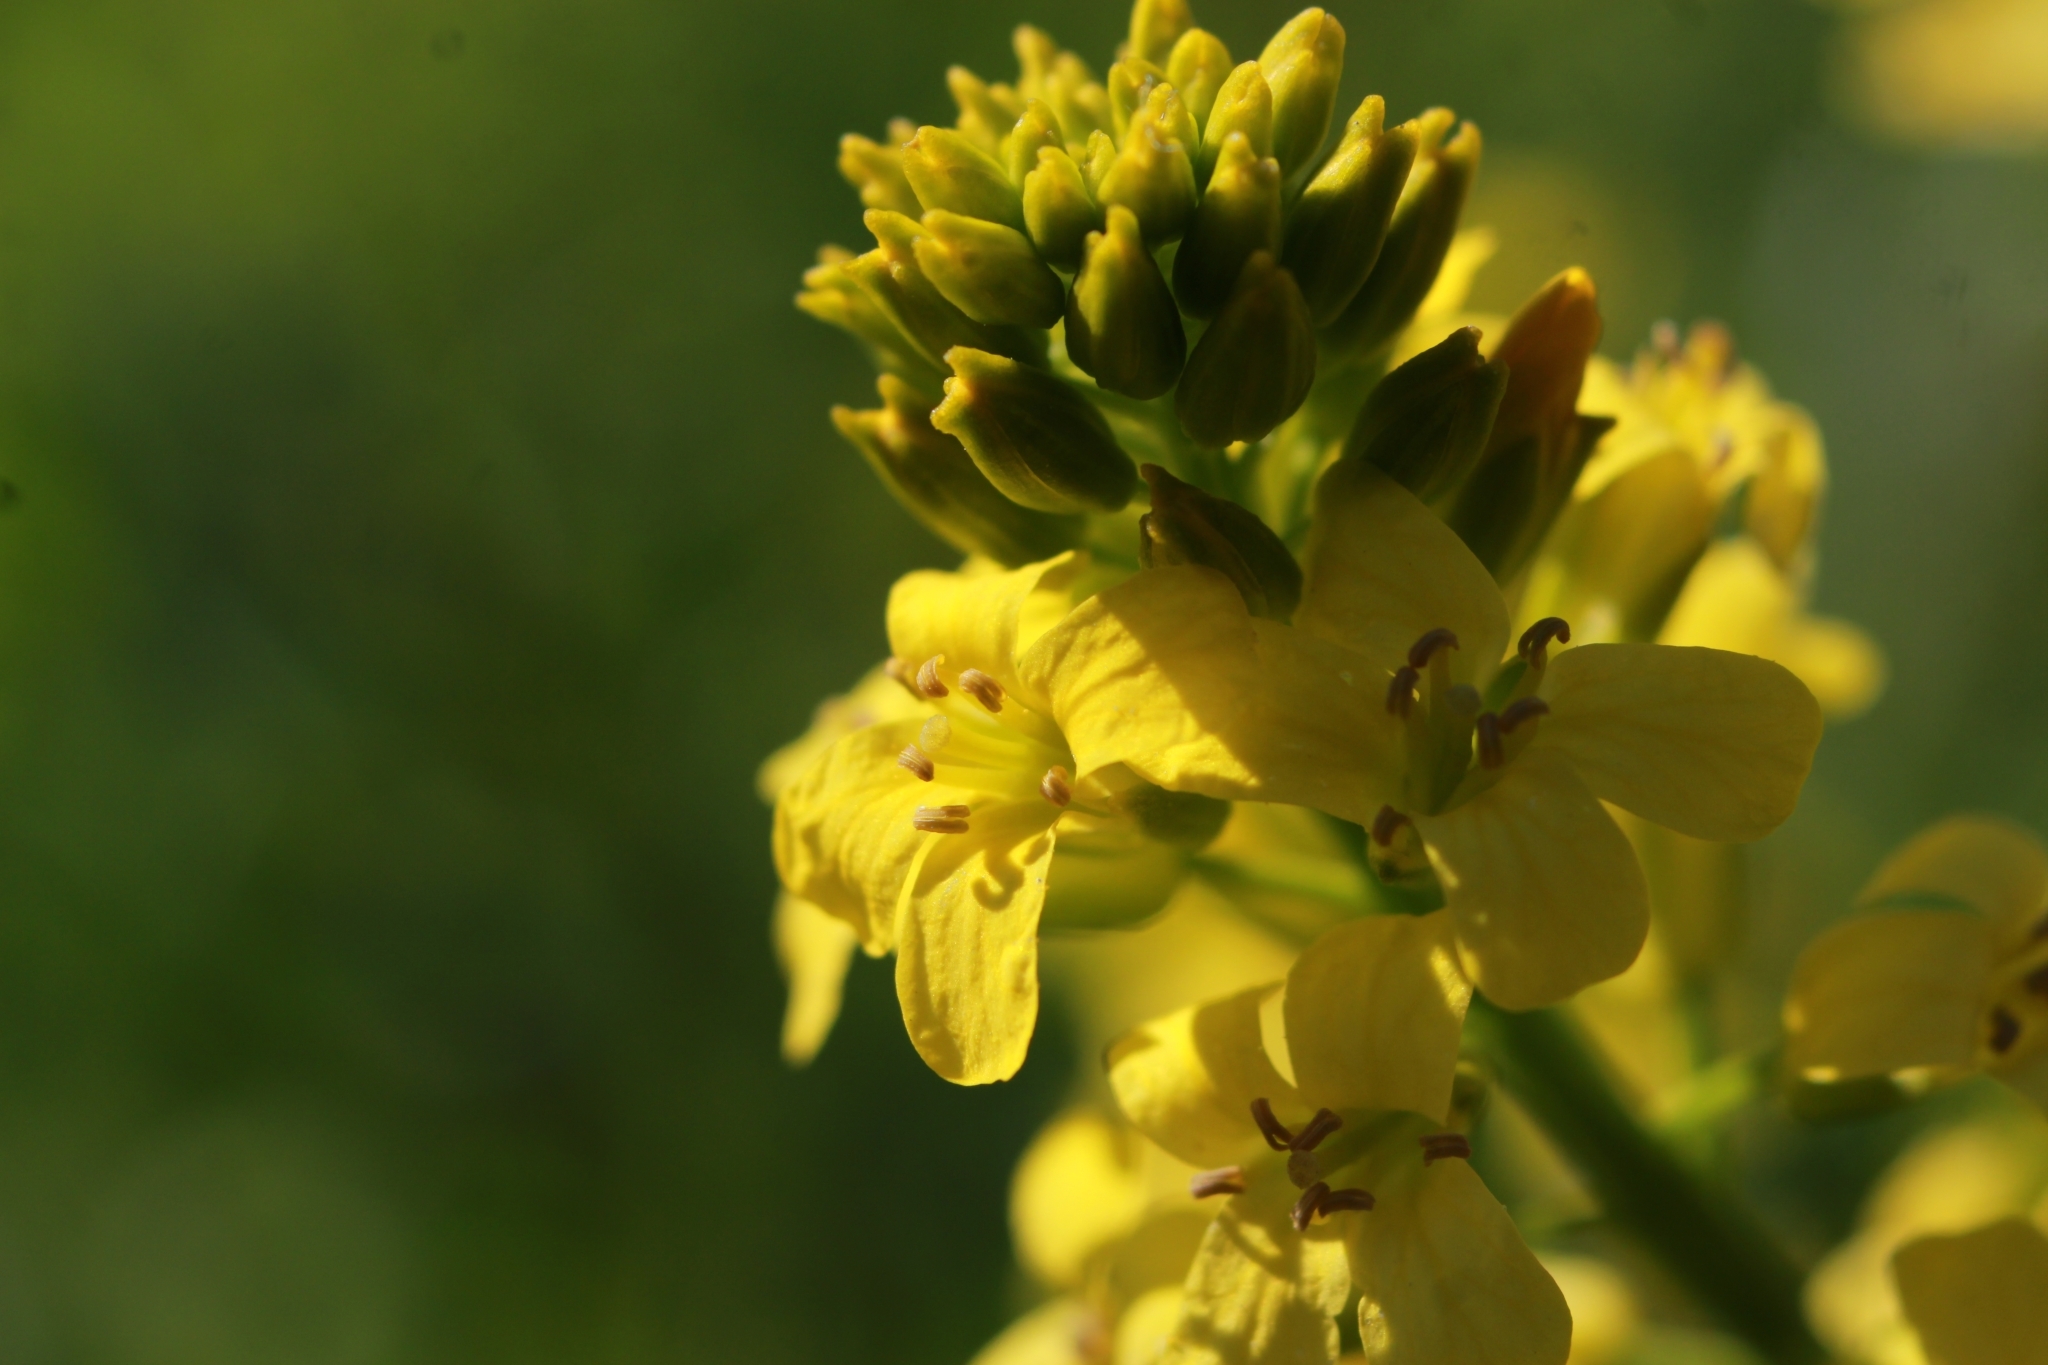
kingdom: Plantae
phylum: Tracheophyta
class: Magnoliopsida
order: Brassicales
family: Brassicaceae
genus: Barbarea
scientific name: Barbarea vulgaris
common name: Cressy-greens
